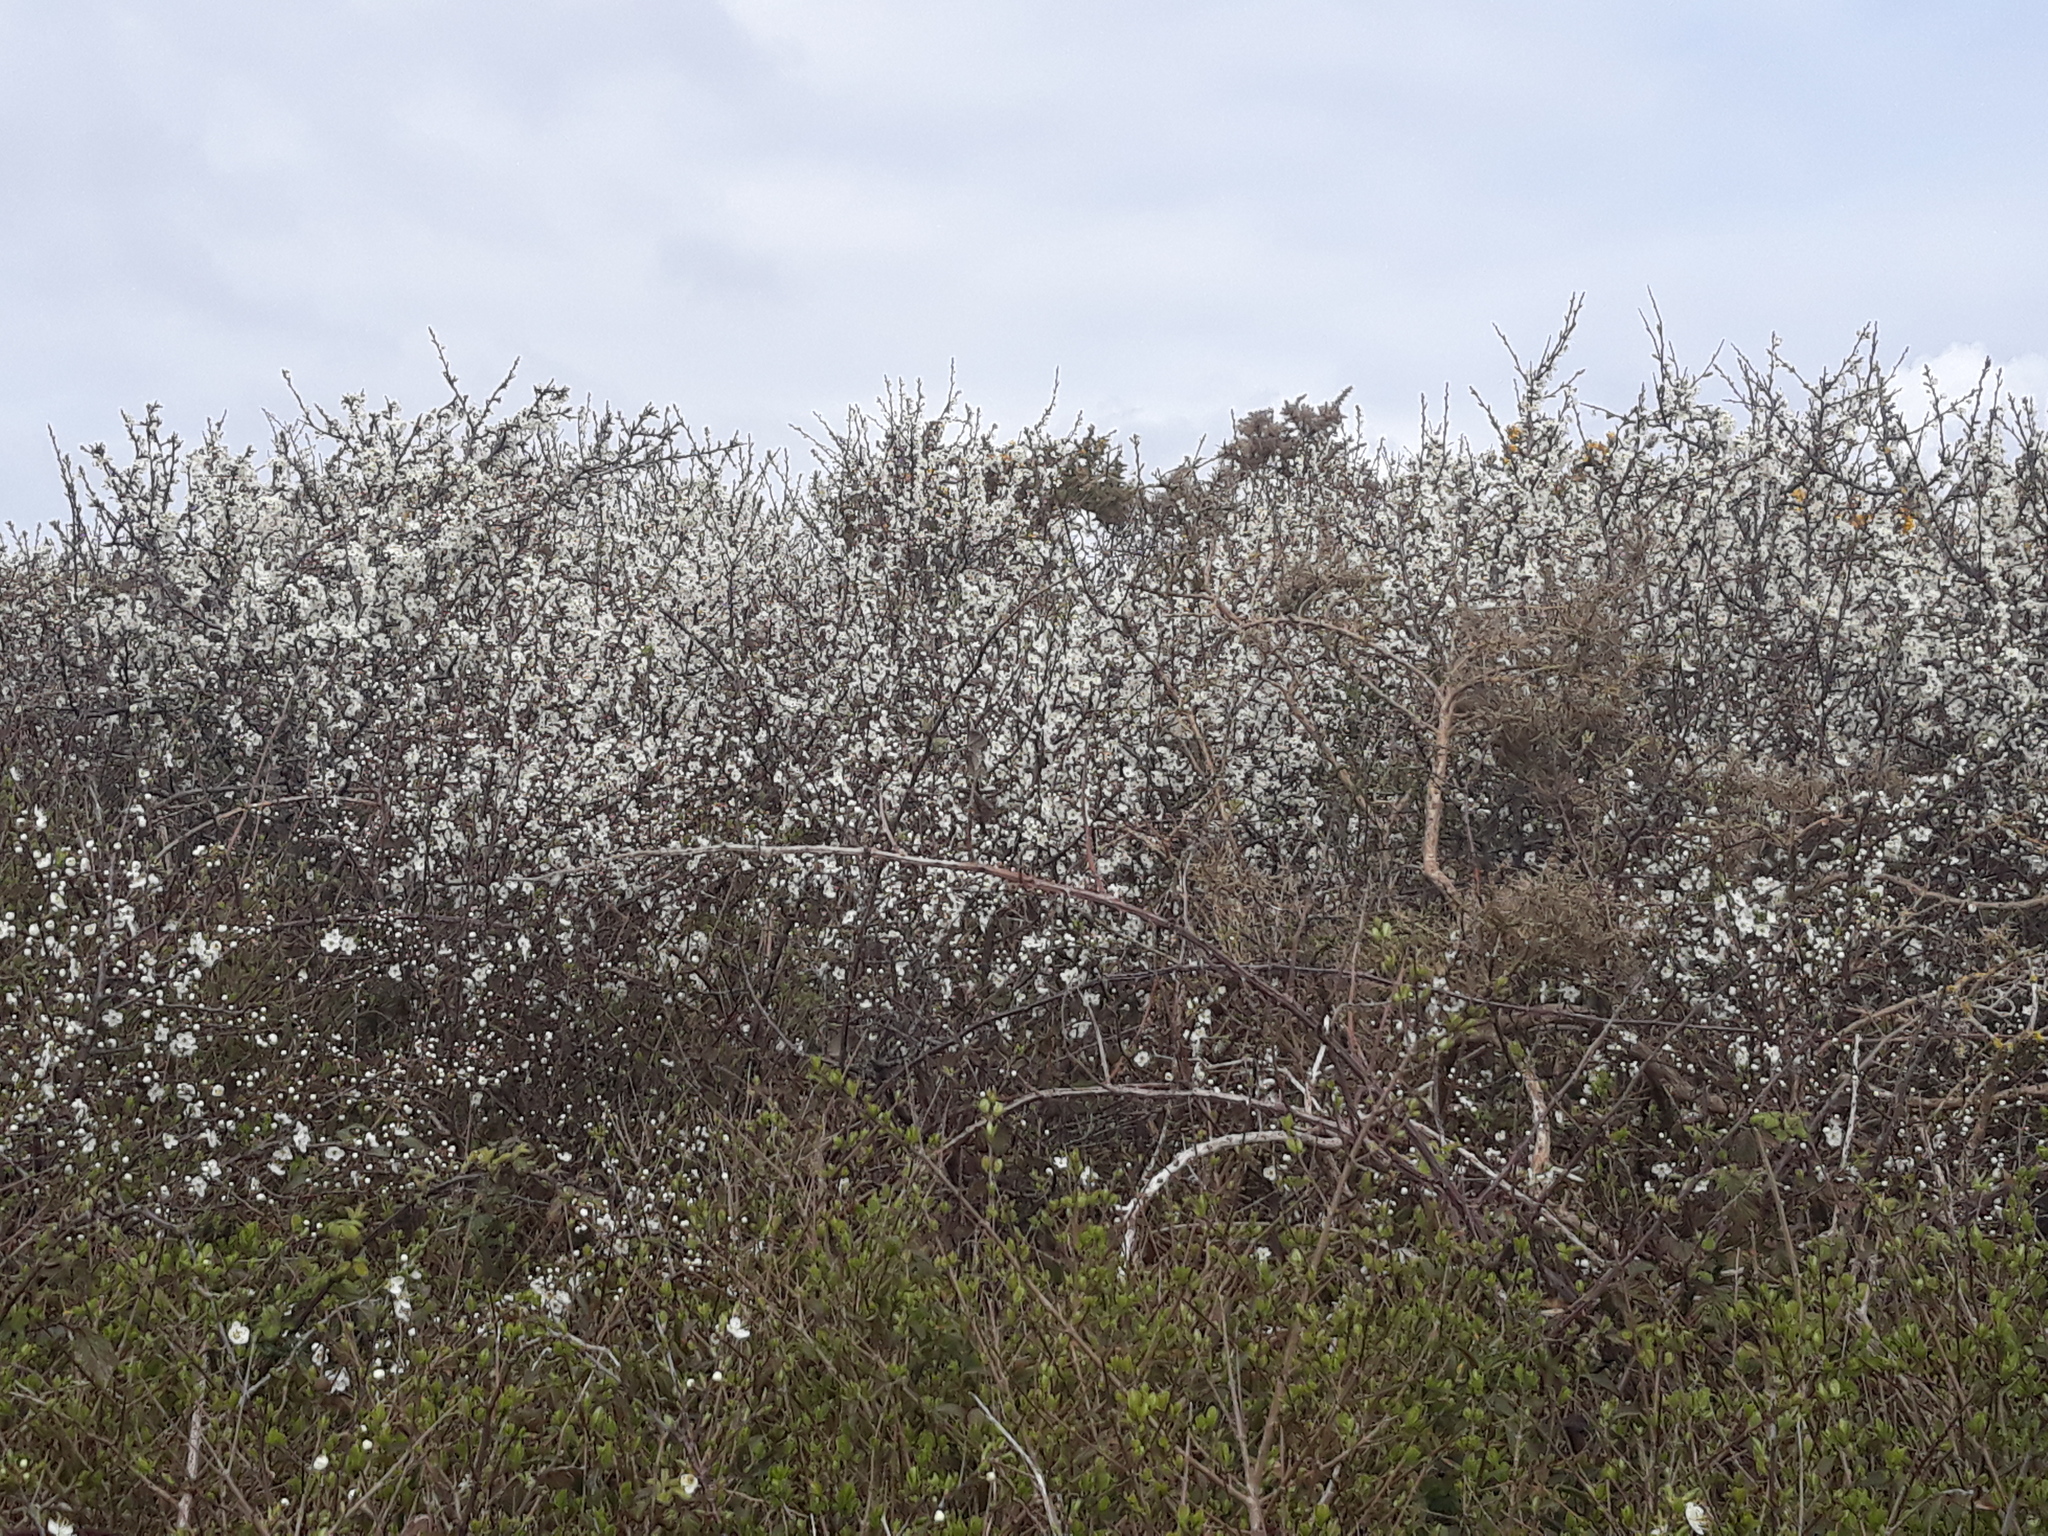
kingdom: Plantae
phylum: Tracheophyta
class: Magnoliopsida
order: Rosales
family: Rosaceae
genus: Prunus
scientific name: Prunus spinosa
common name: Blackthorn
